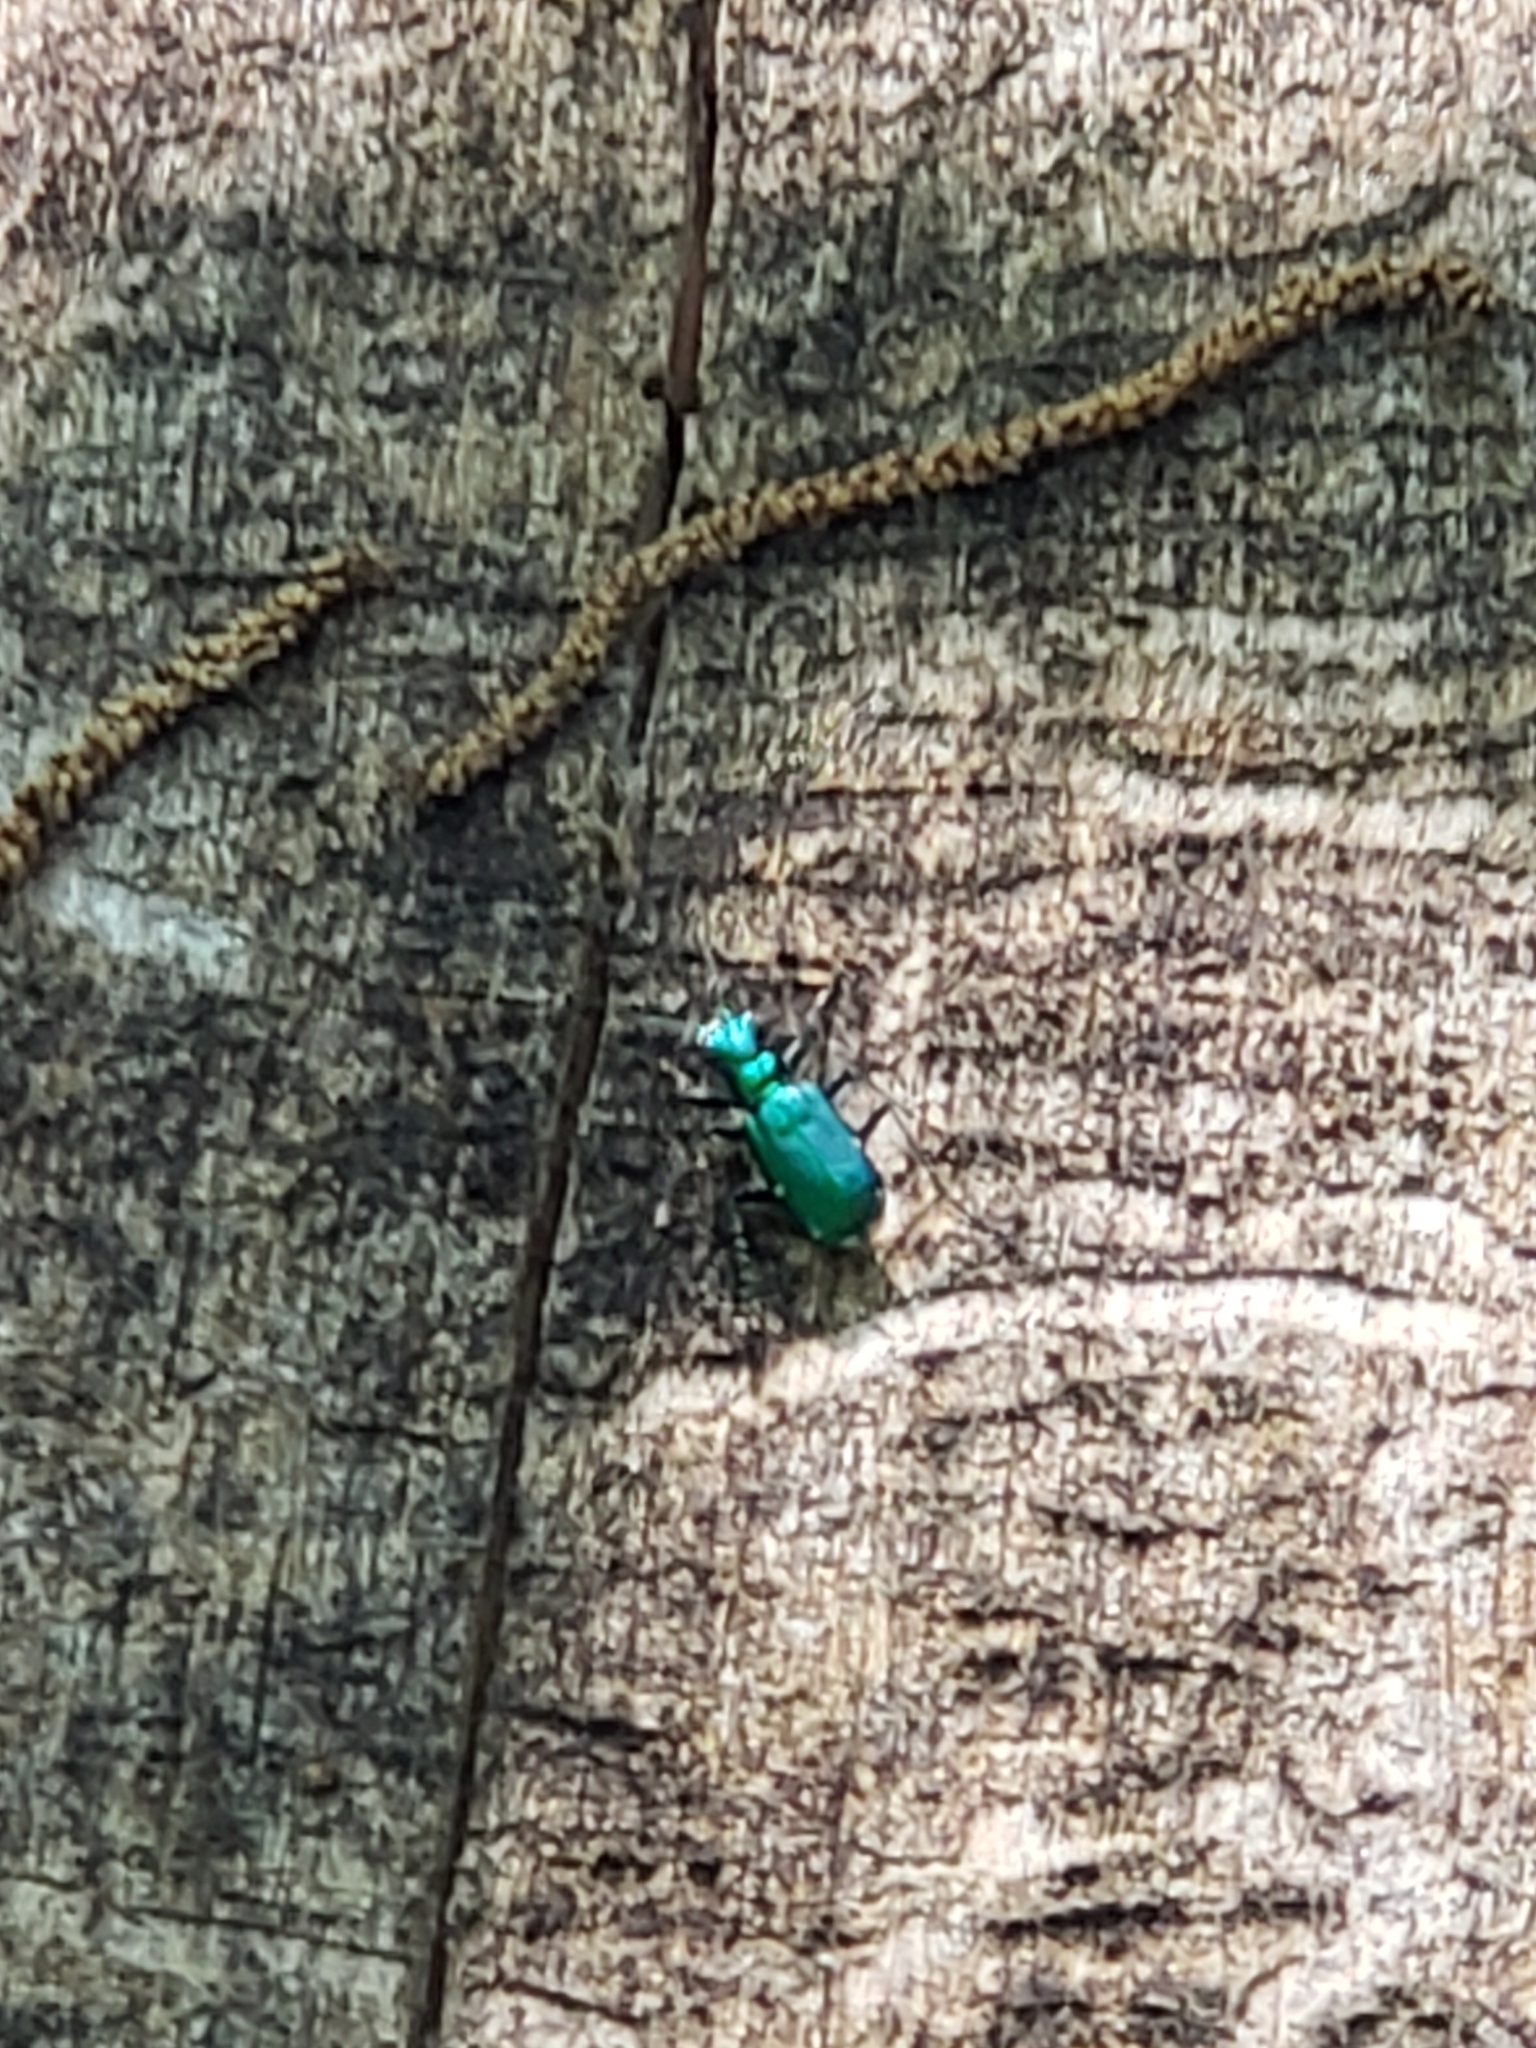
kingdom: Animalia
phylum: Arthropoda
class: Insecta
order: Coleoptera
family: Carabidae
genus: Cicindela
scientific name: Cicindela sexguttata
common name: Six-spotted tiger beetle
